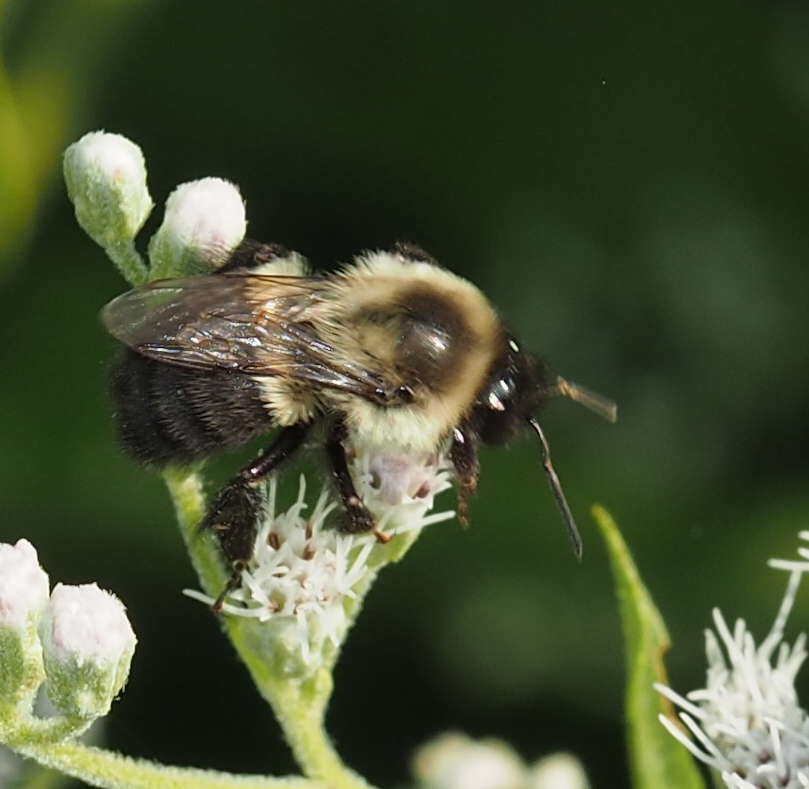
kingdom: Animalia
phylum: Arthropoda
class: Insecta
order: Hymenoptera
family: Apidae
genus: Bombus
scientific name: Bombus impatiens
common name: Common eastern bumble bee
